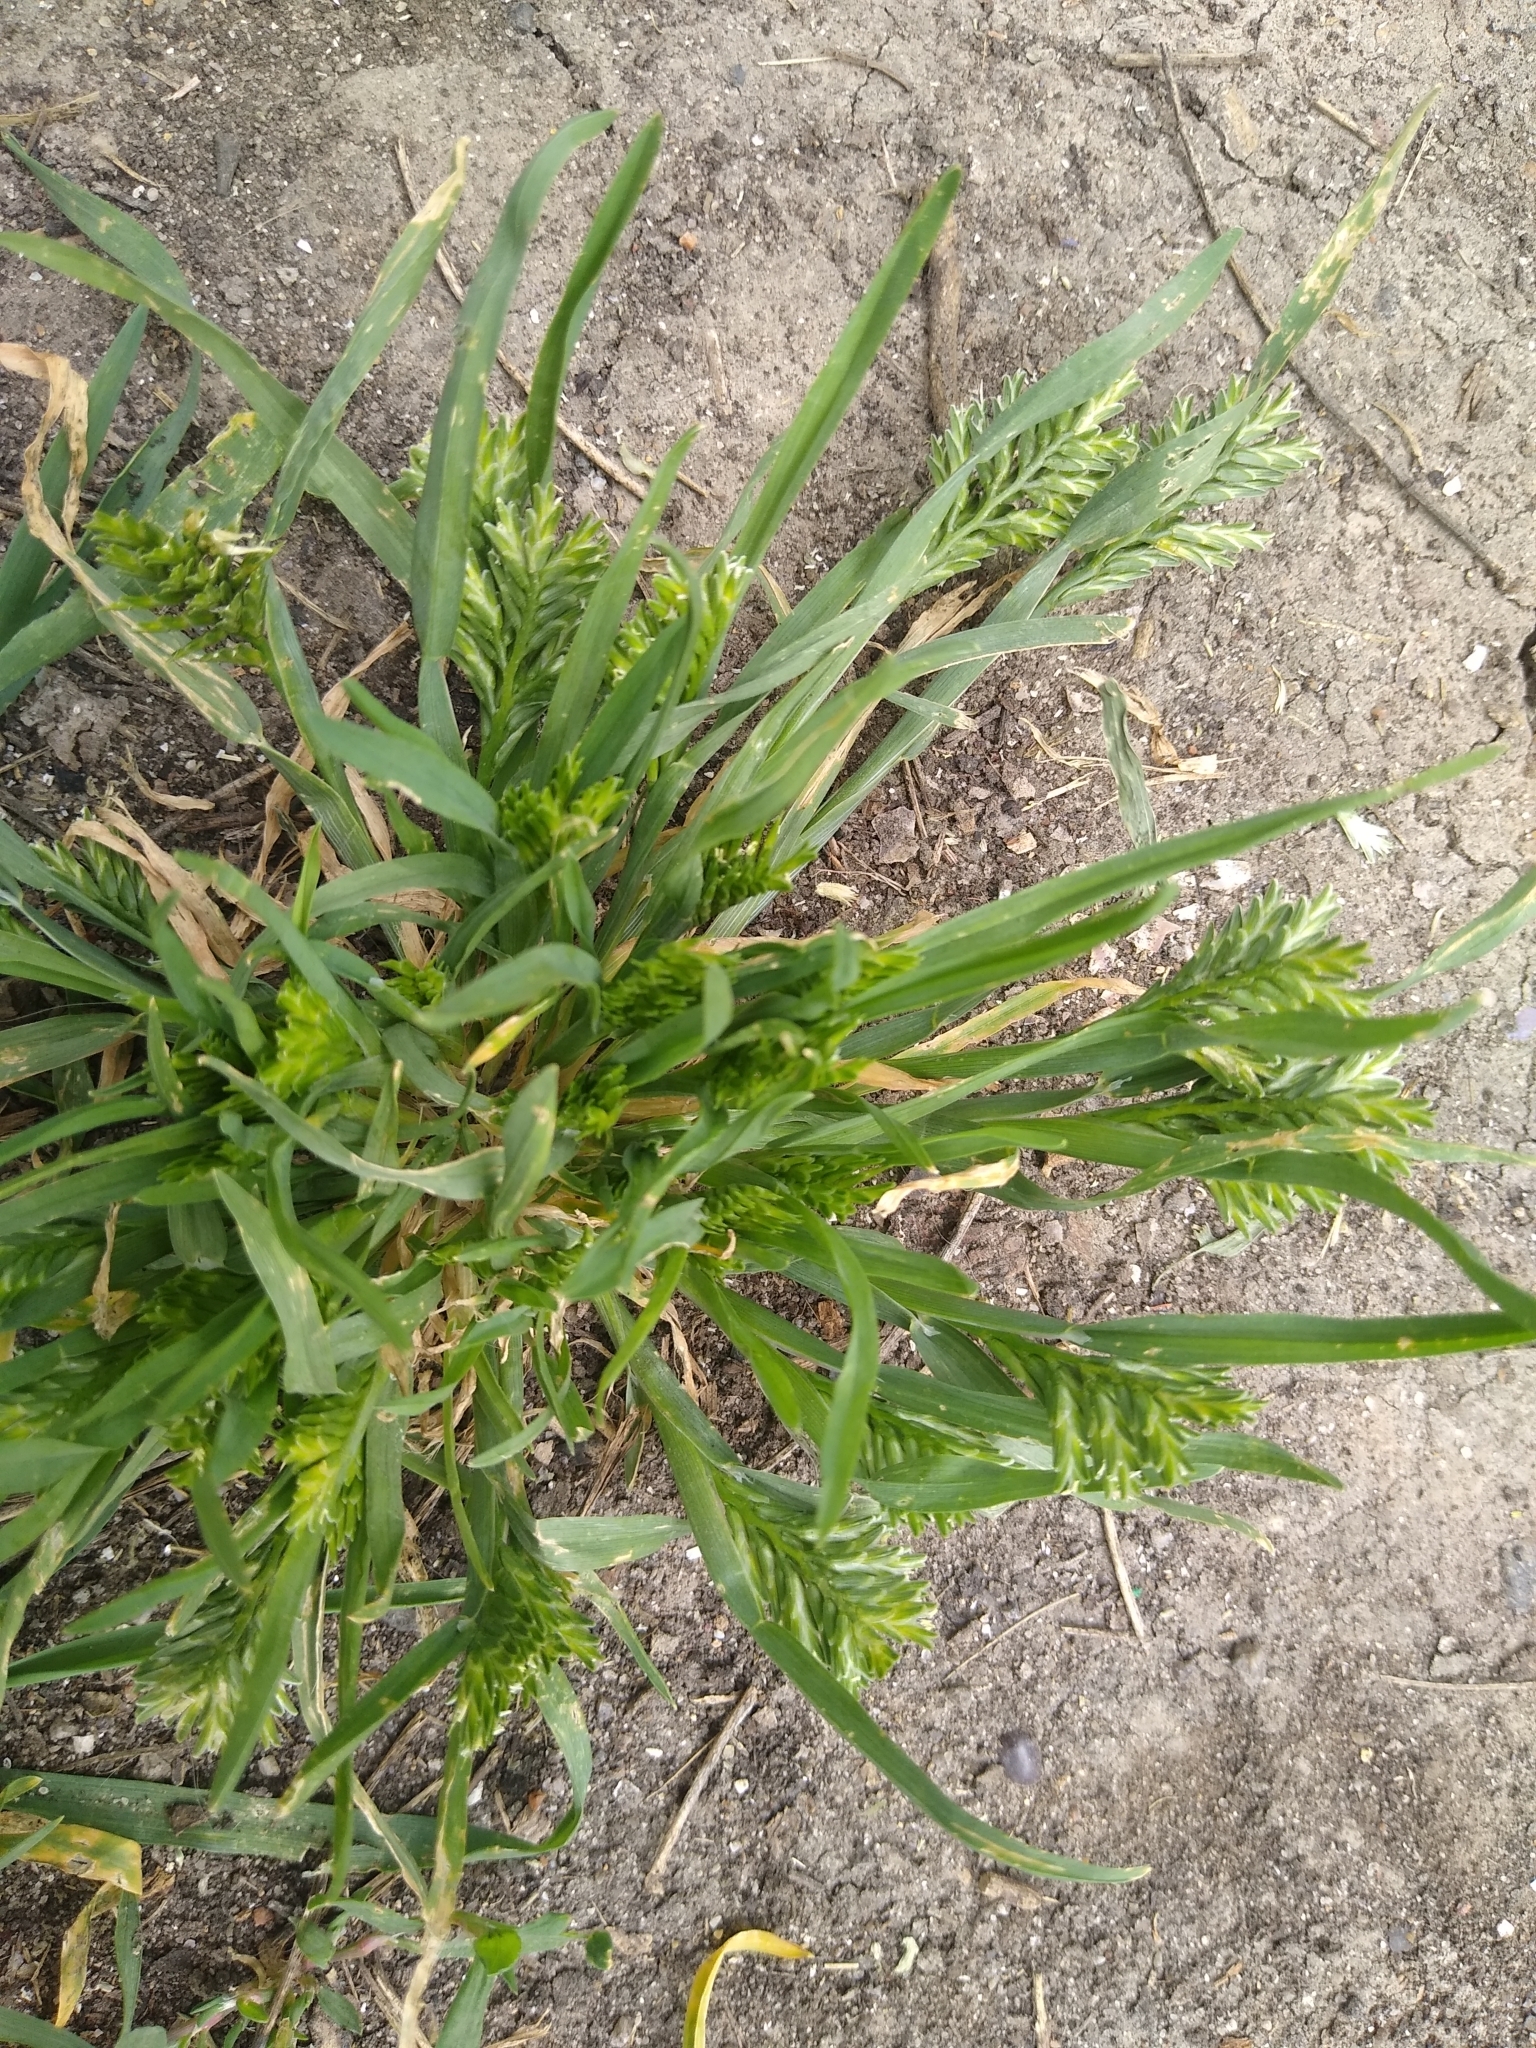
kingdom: Plantae
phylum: Tracheophyta
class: Liliopsida
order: Poales
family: Poaceae
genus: Sclerochloa
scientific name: Sclerochloa dura
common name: Common hardgrass
